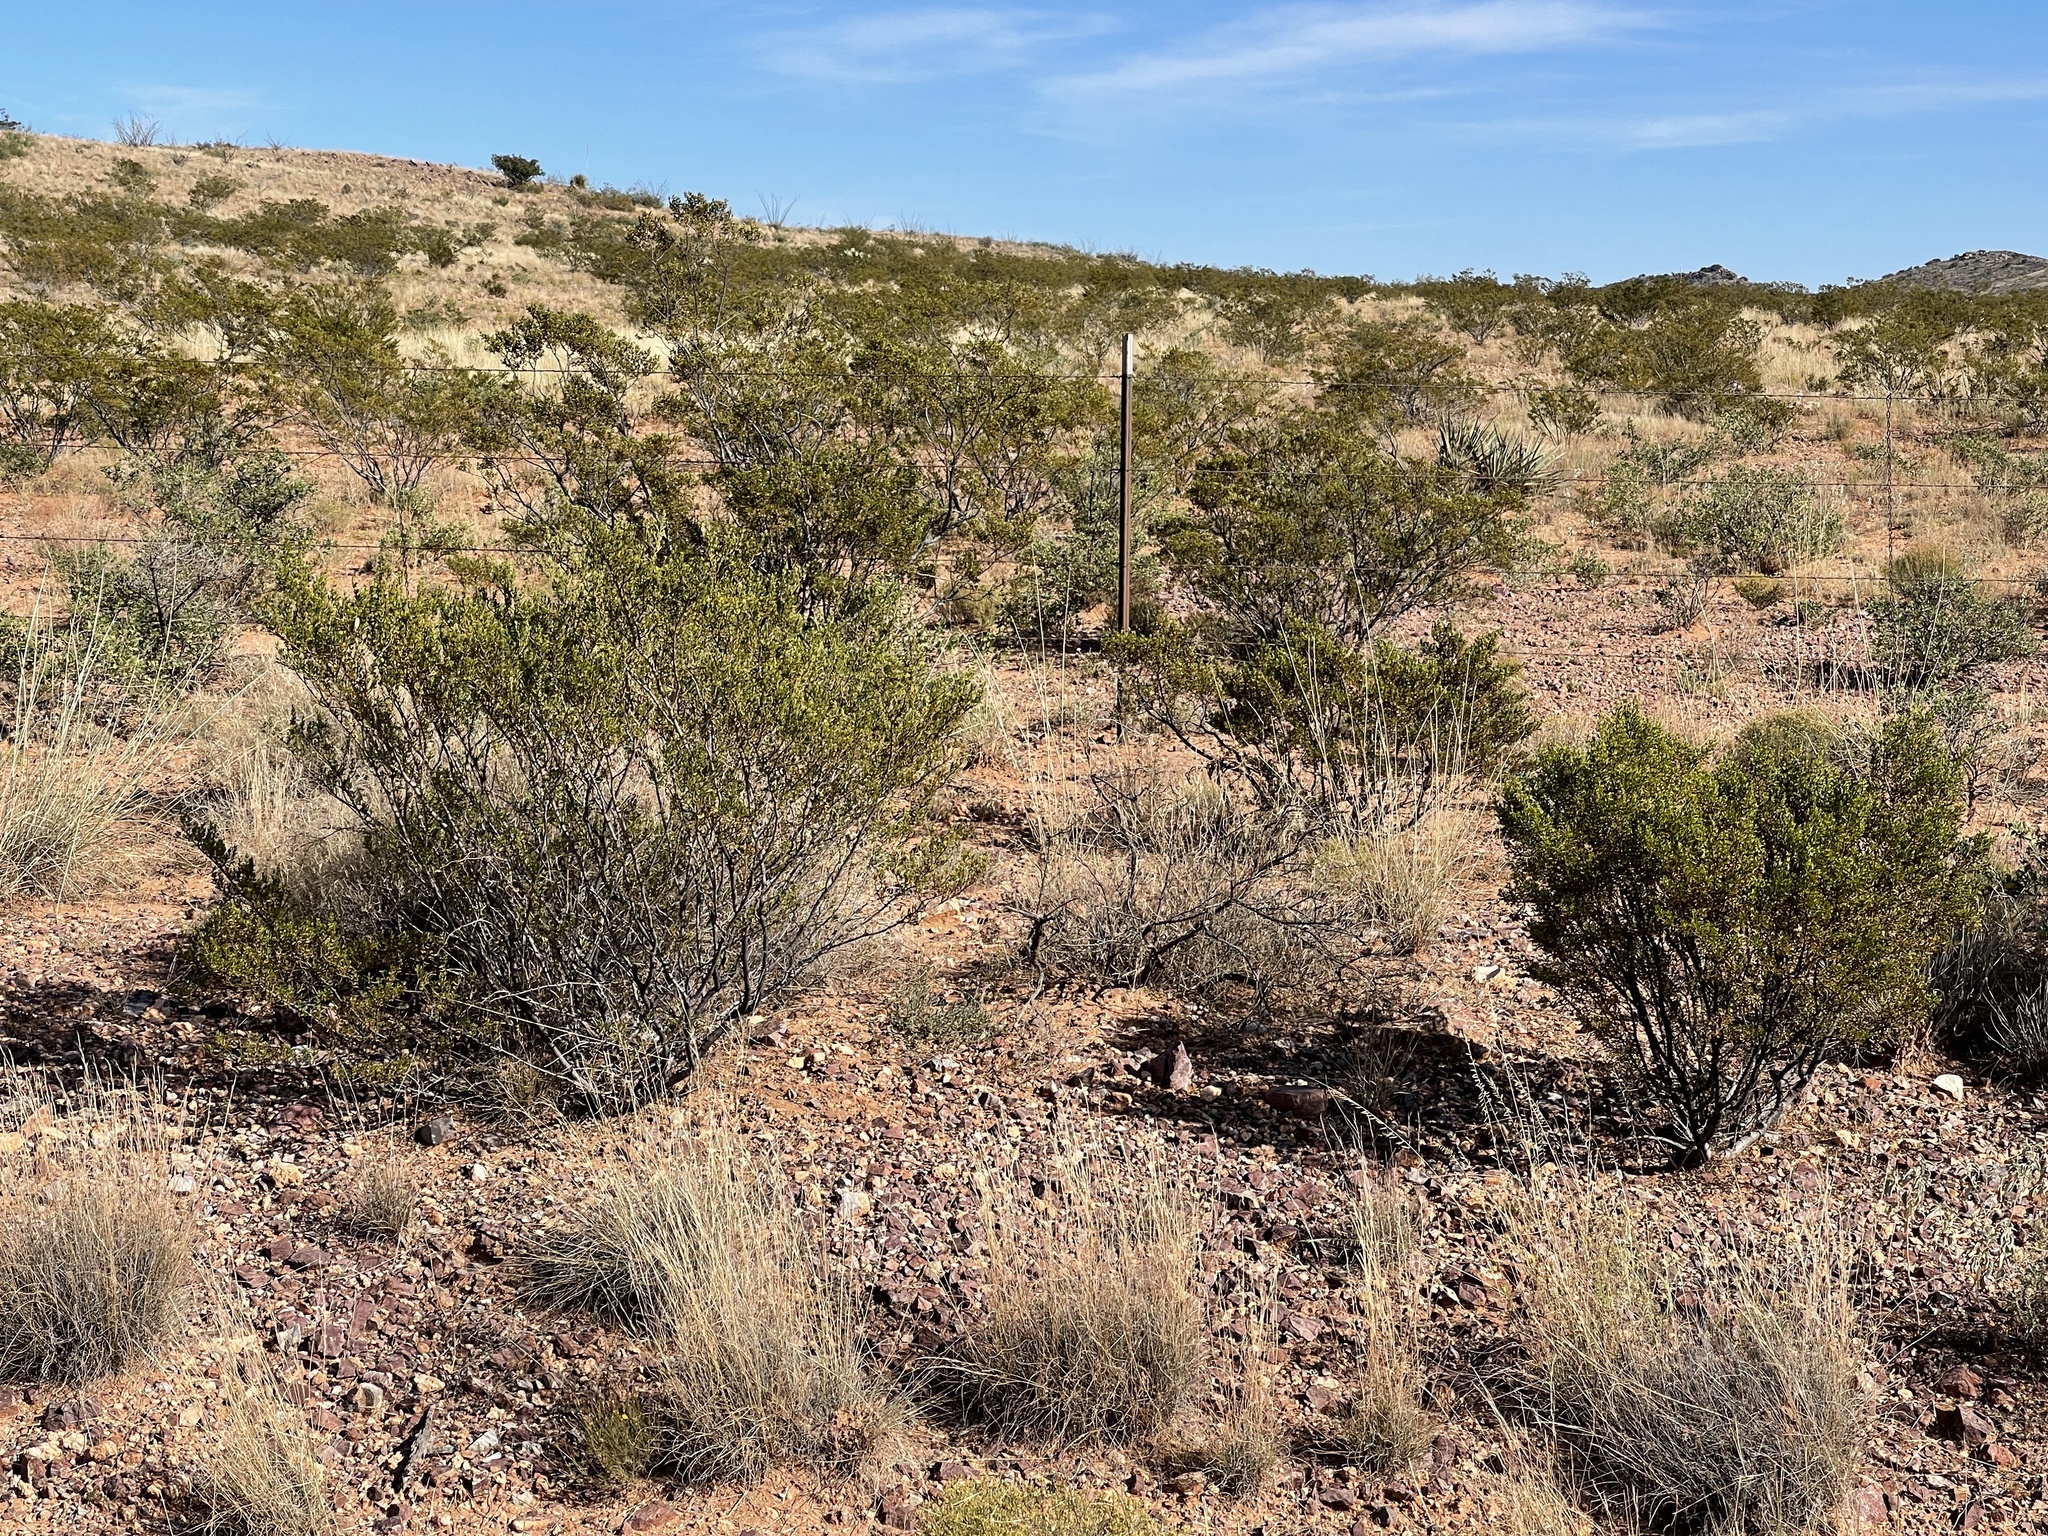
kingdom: Plantae
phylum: Tracheophyta
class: Magnoliopsida
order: Zygophyllales
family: Zygophyllaceae
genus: Larrea
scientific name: Larrea tridentata
